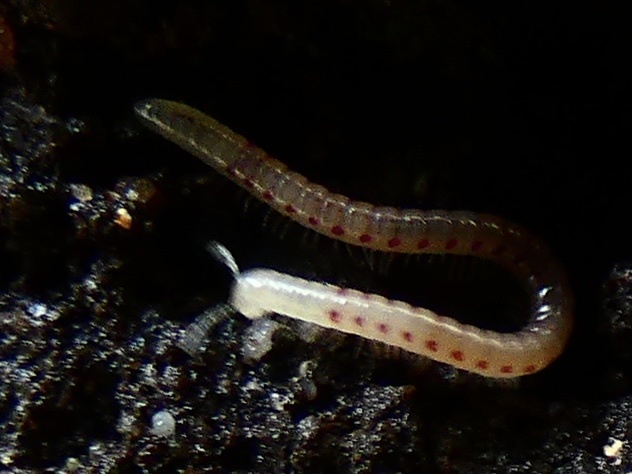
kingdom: Animalia
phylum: Arthropoda
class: Diplopoda
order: Julida
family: Blaniulidae
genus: Blaniulus
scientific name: Blaniulus guttulatus
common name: Spotted snake millipede
